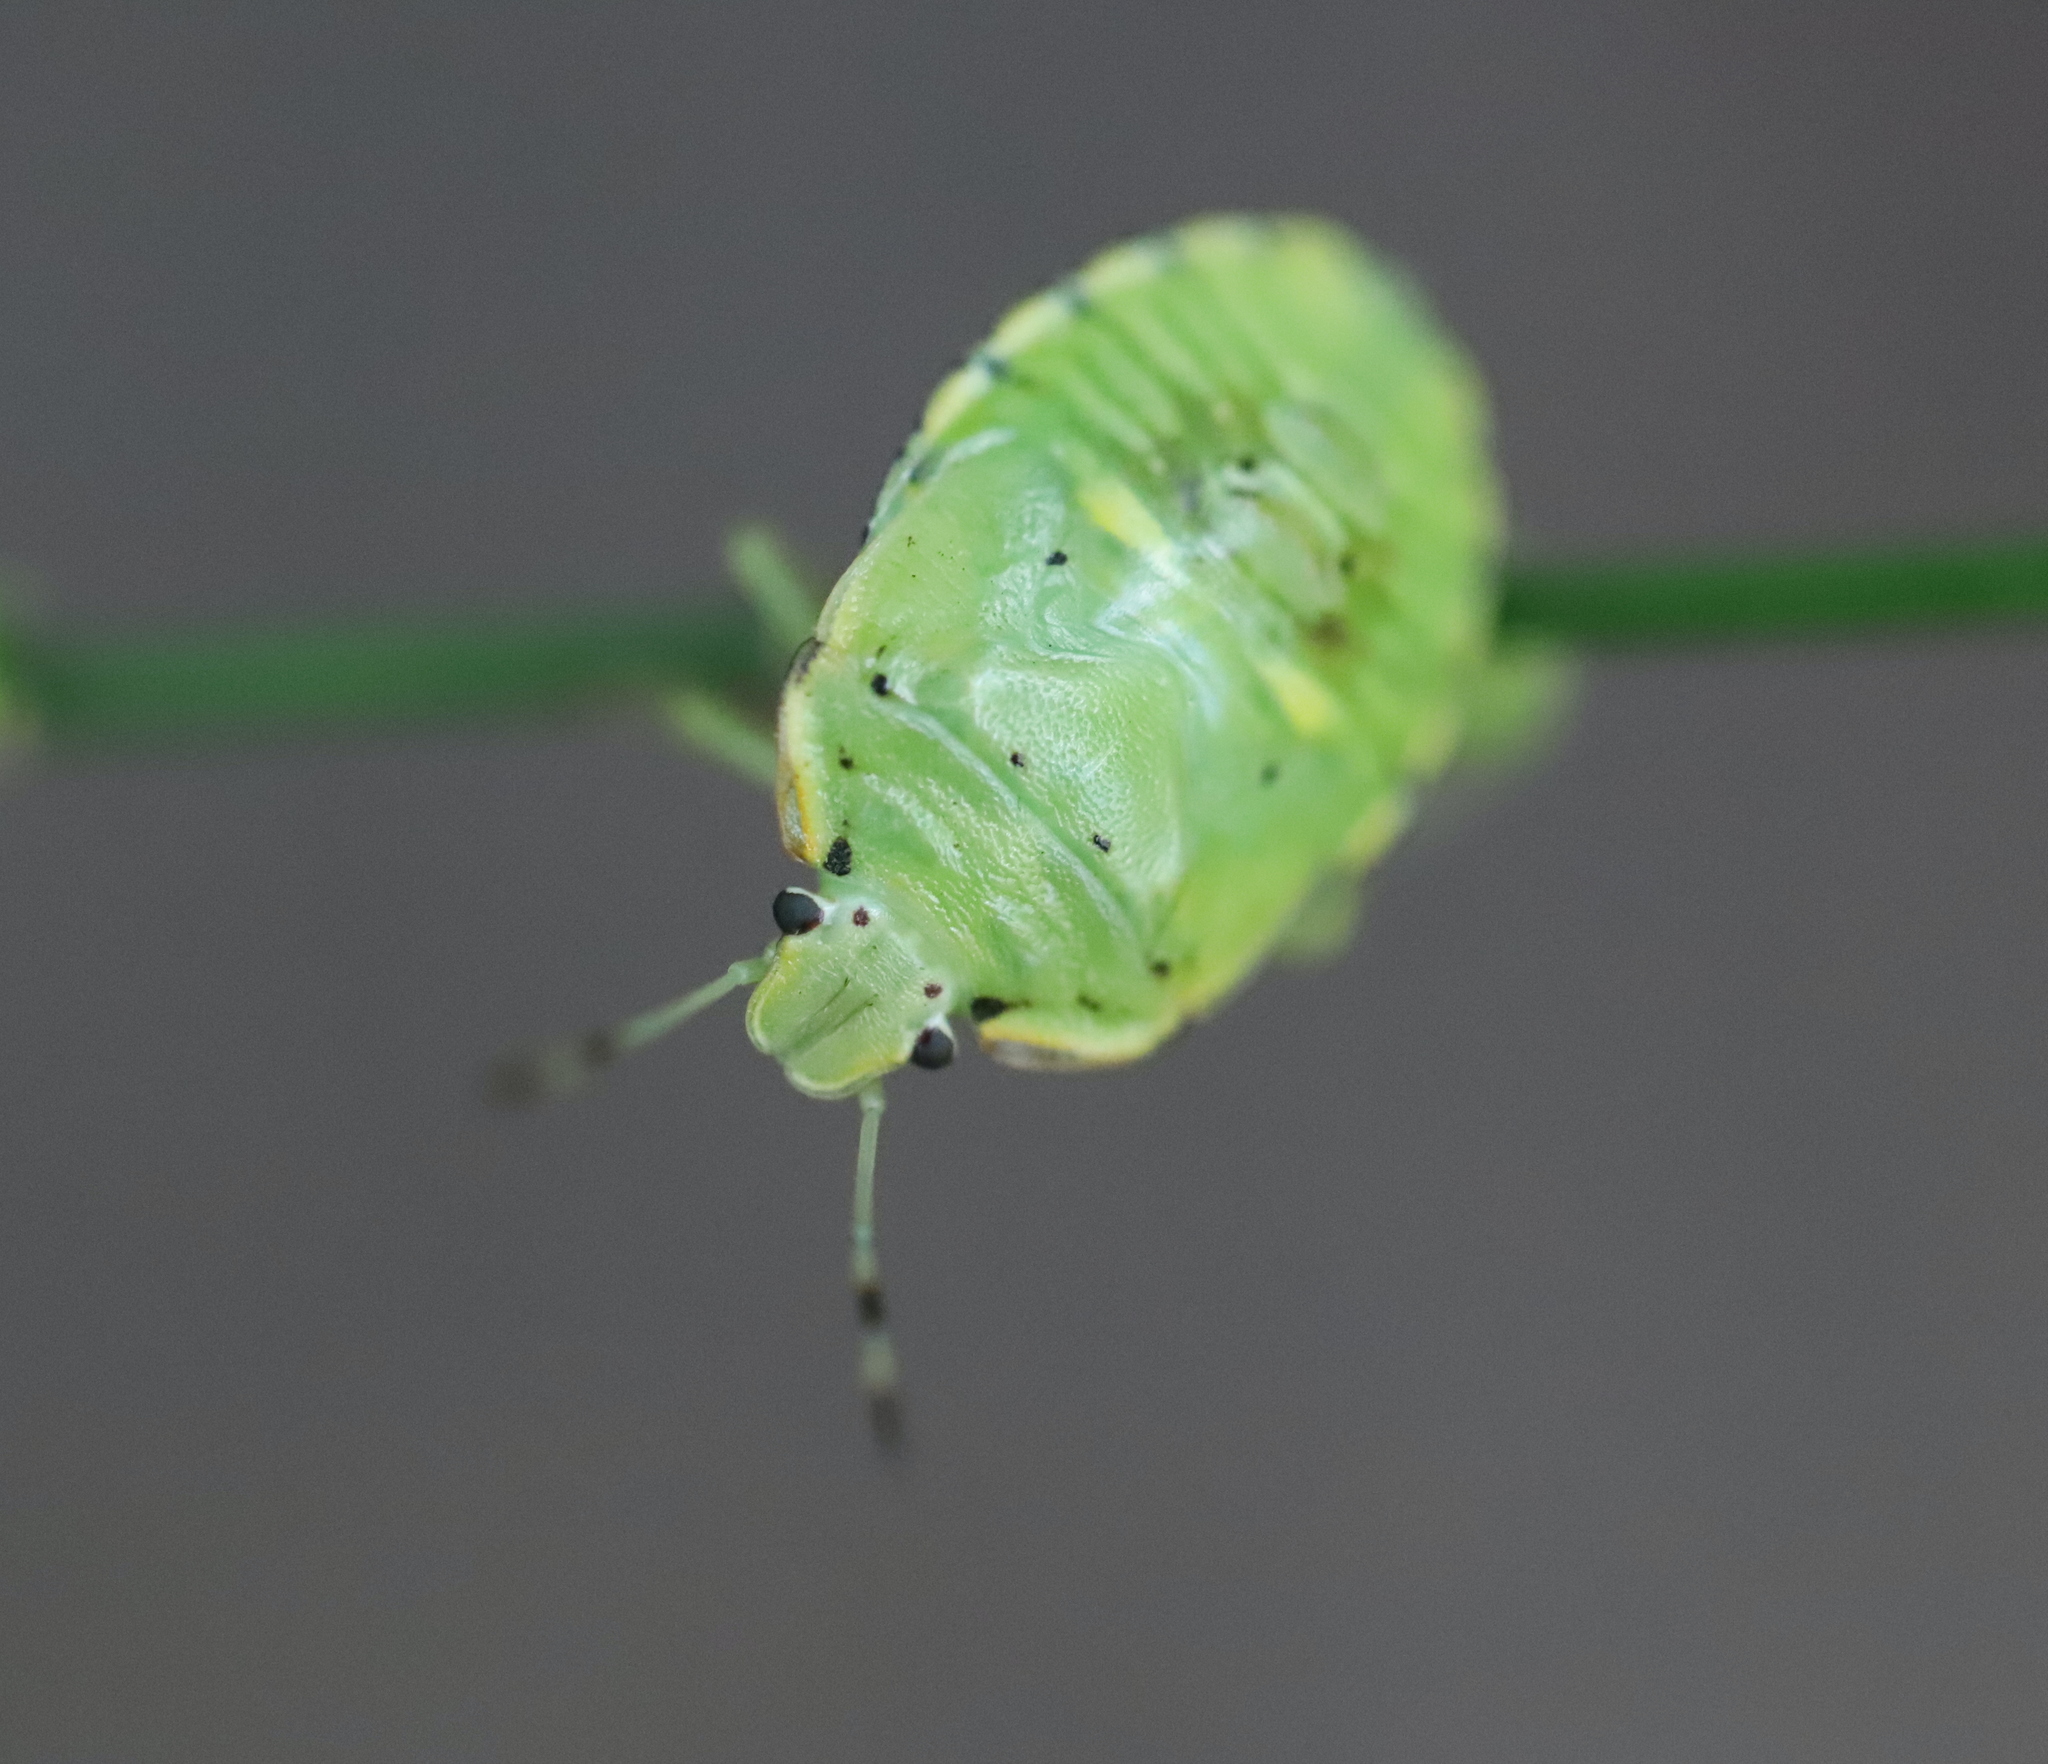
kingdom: Animalia
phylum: Arthropoda
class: Insecta
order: Hemiptera
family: Pentatomidae
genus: Chinavia
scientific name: Chinavia hilaris
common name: Green stink bug
